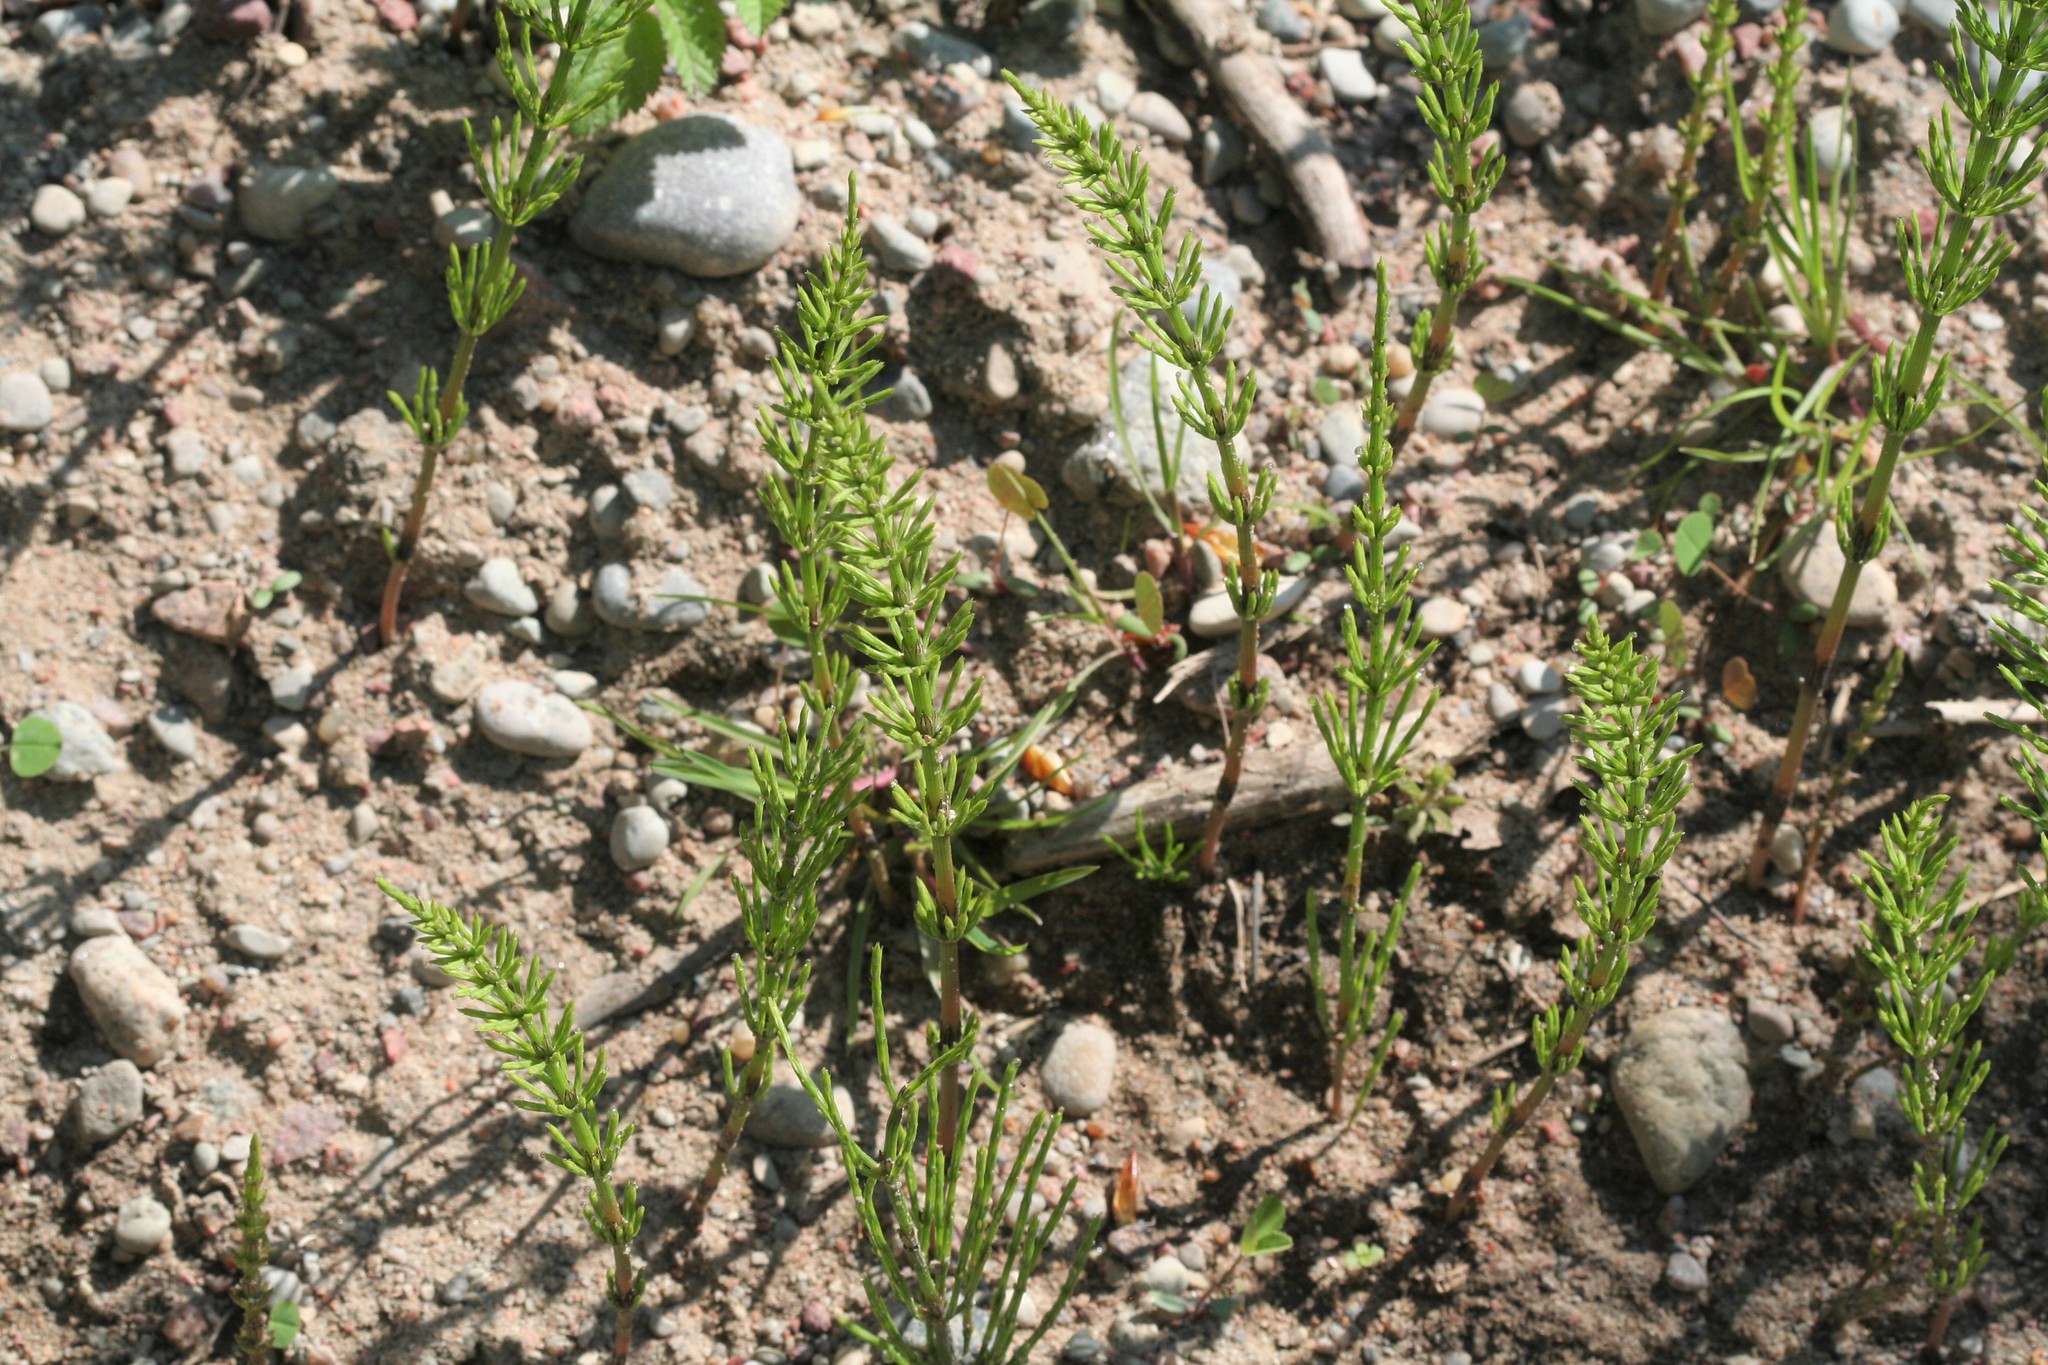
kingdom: Plantae
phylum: Tracheophyta
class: Polypodiopsida
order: Equisetales
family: Equisetaceae
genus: Equisetum
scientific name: Equisetum arvense
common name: Field horsetail
